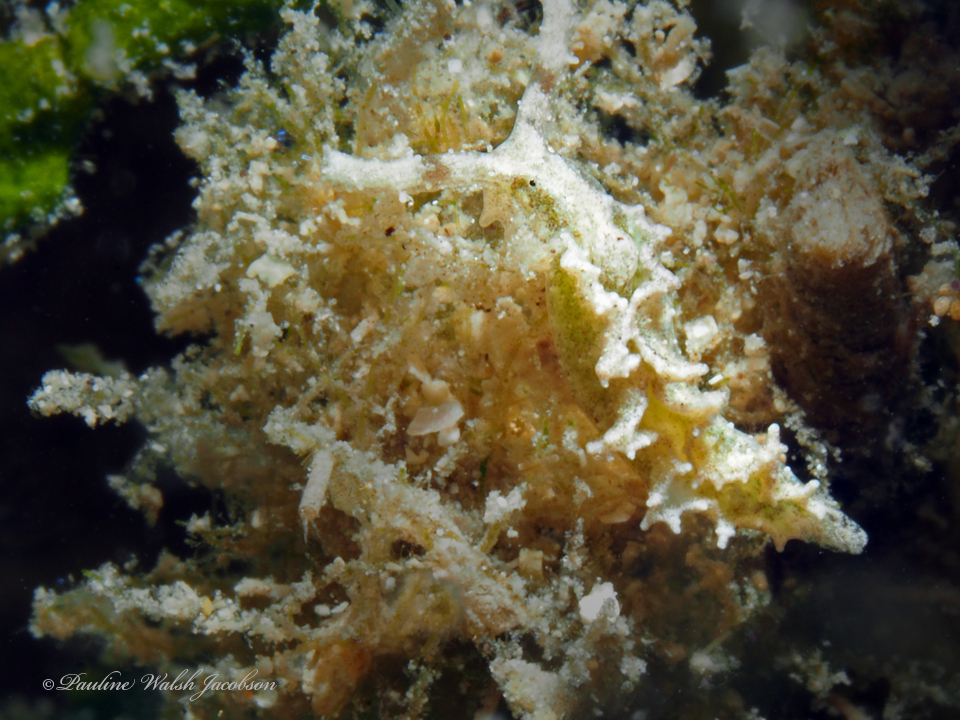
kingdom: Animalia
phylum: Mollusca
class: Gastropoda
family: Plakobranchidae
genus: Elysia
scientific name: Elysia papillosa
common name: Papillose elysia
